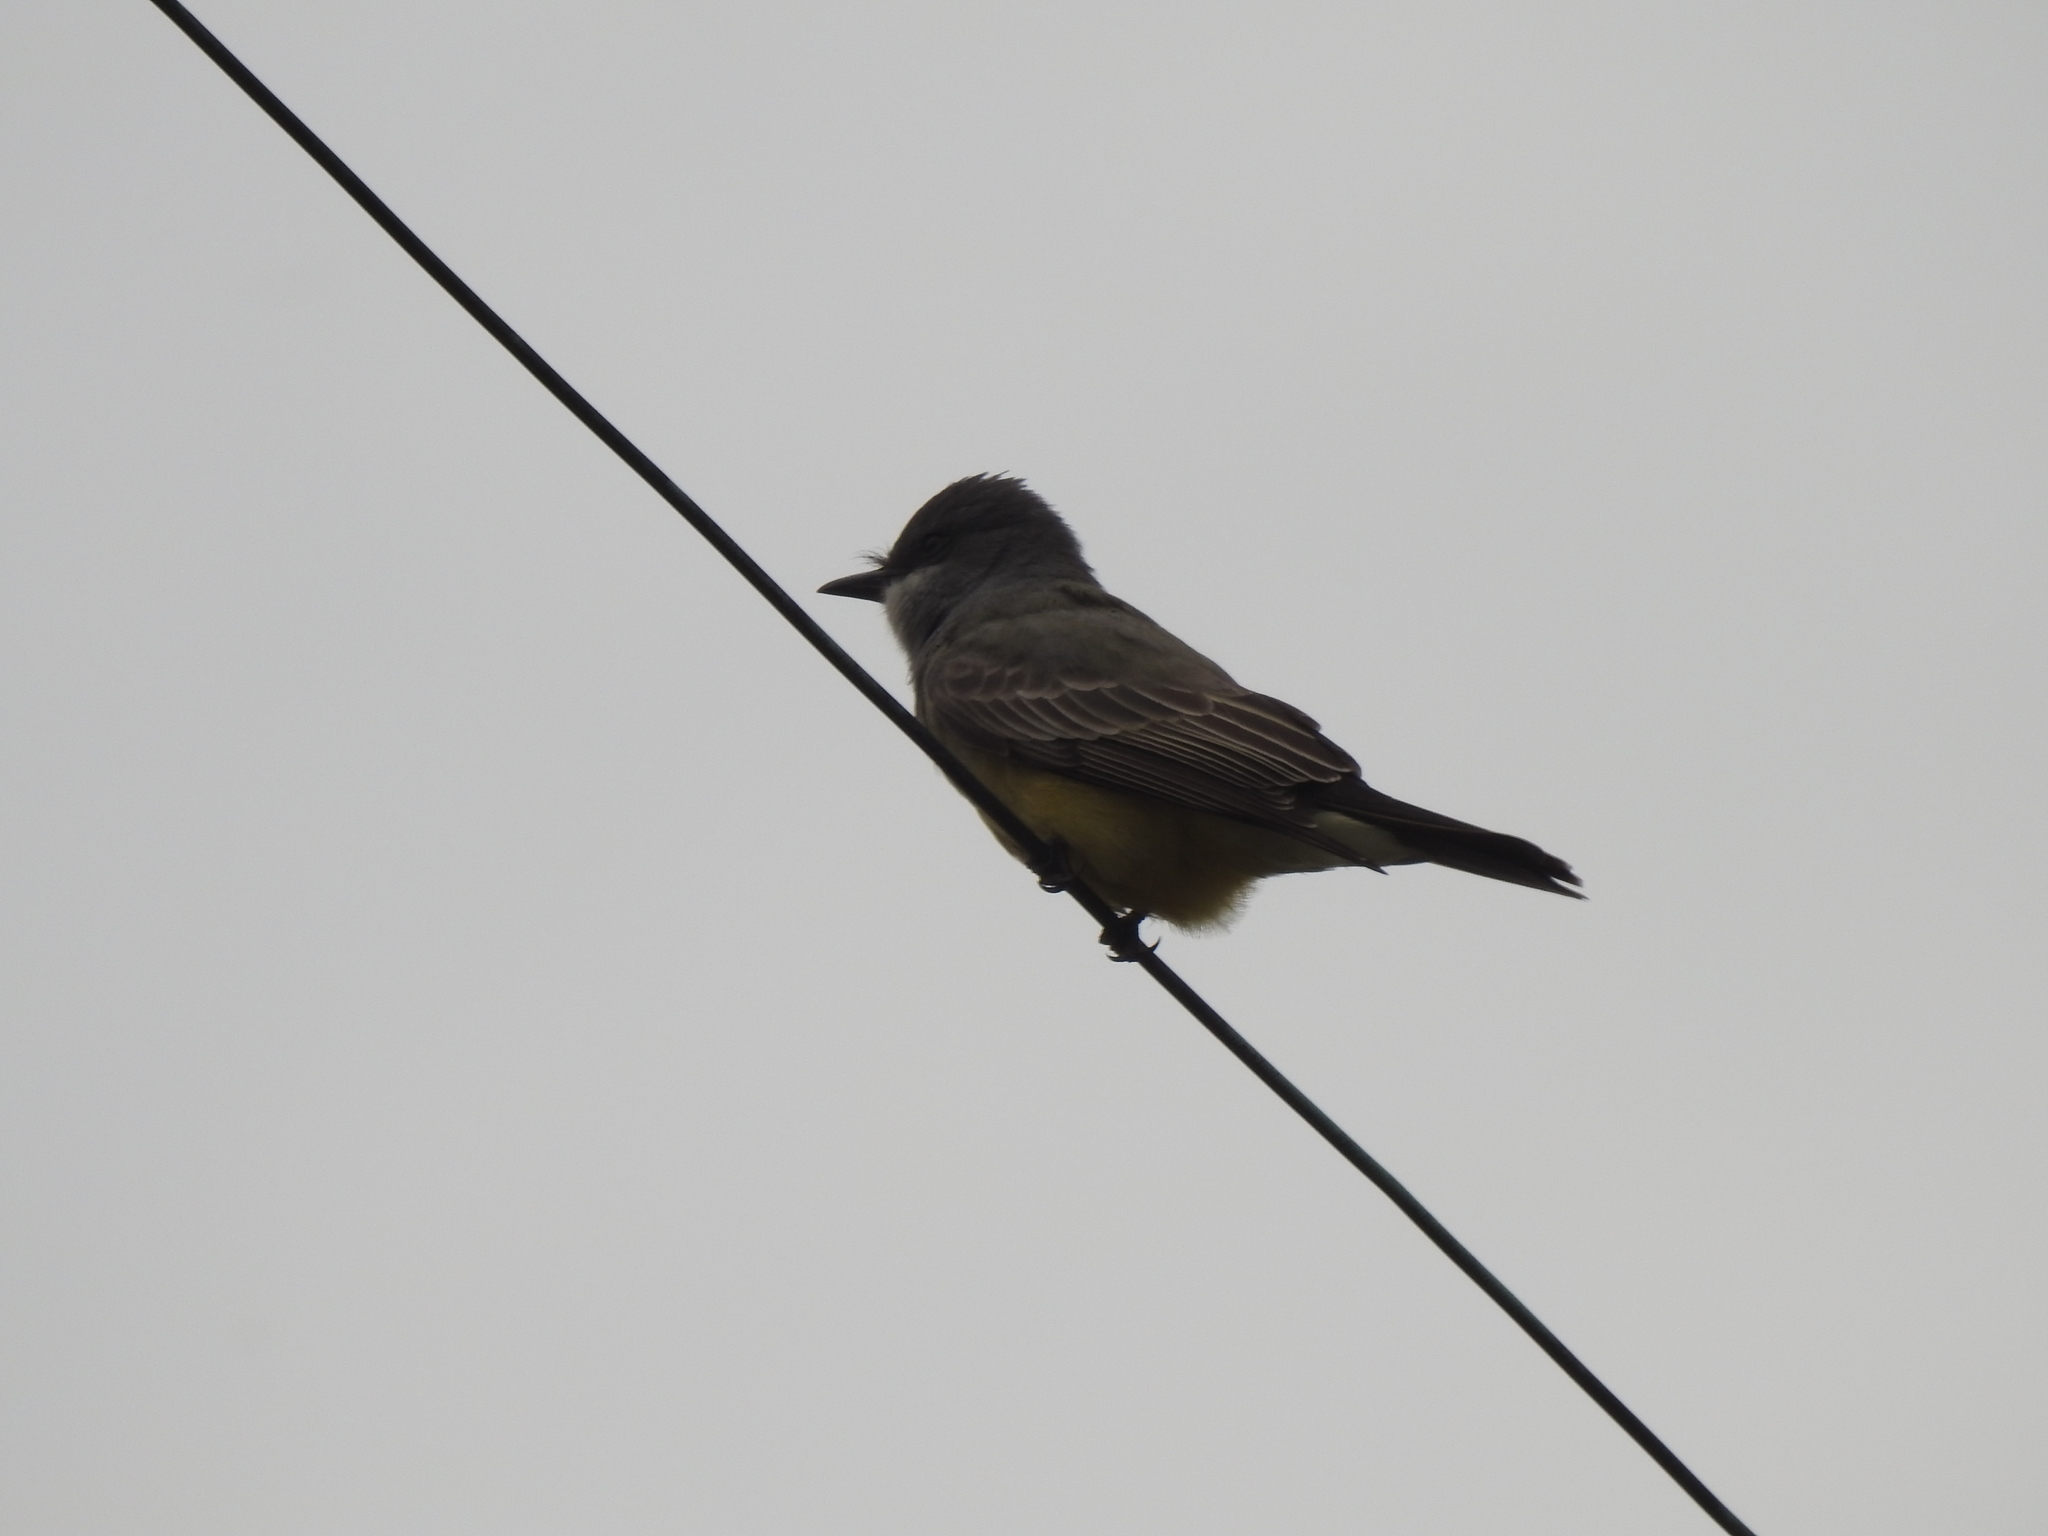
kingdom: Animalia
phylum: Chordata
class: Aves
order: Passeriformes
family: Tyrannidae
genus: Tyrannus
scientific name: Tyrannus vociferans
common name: Cassin's kingbird
